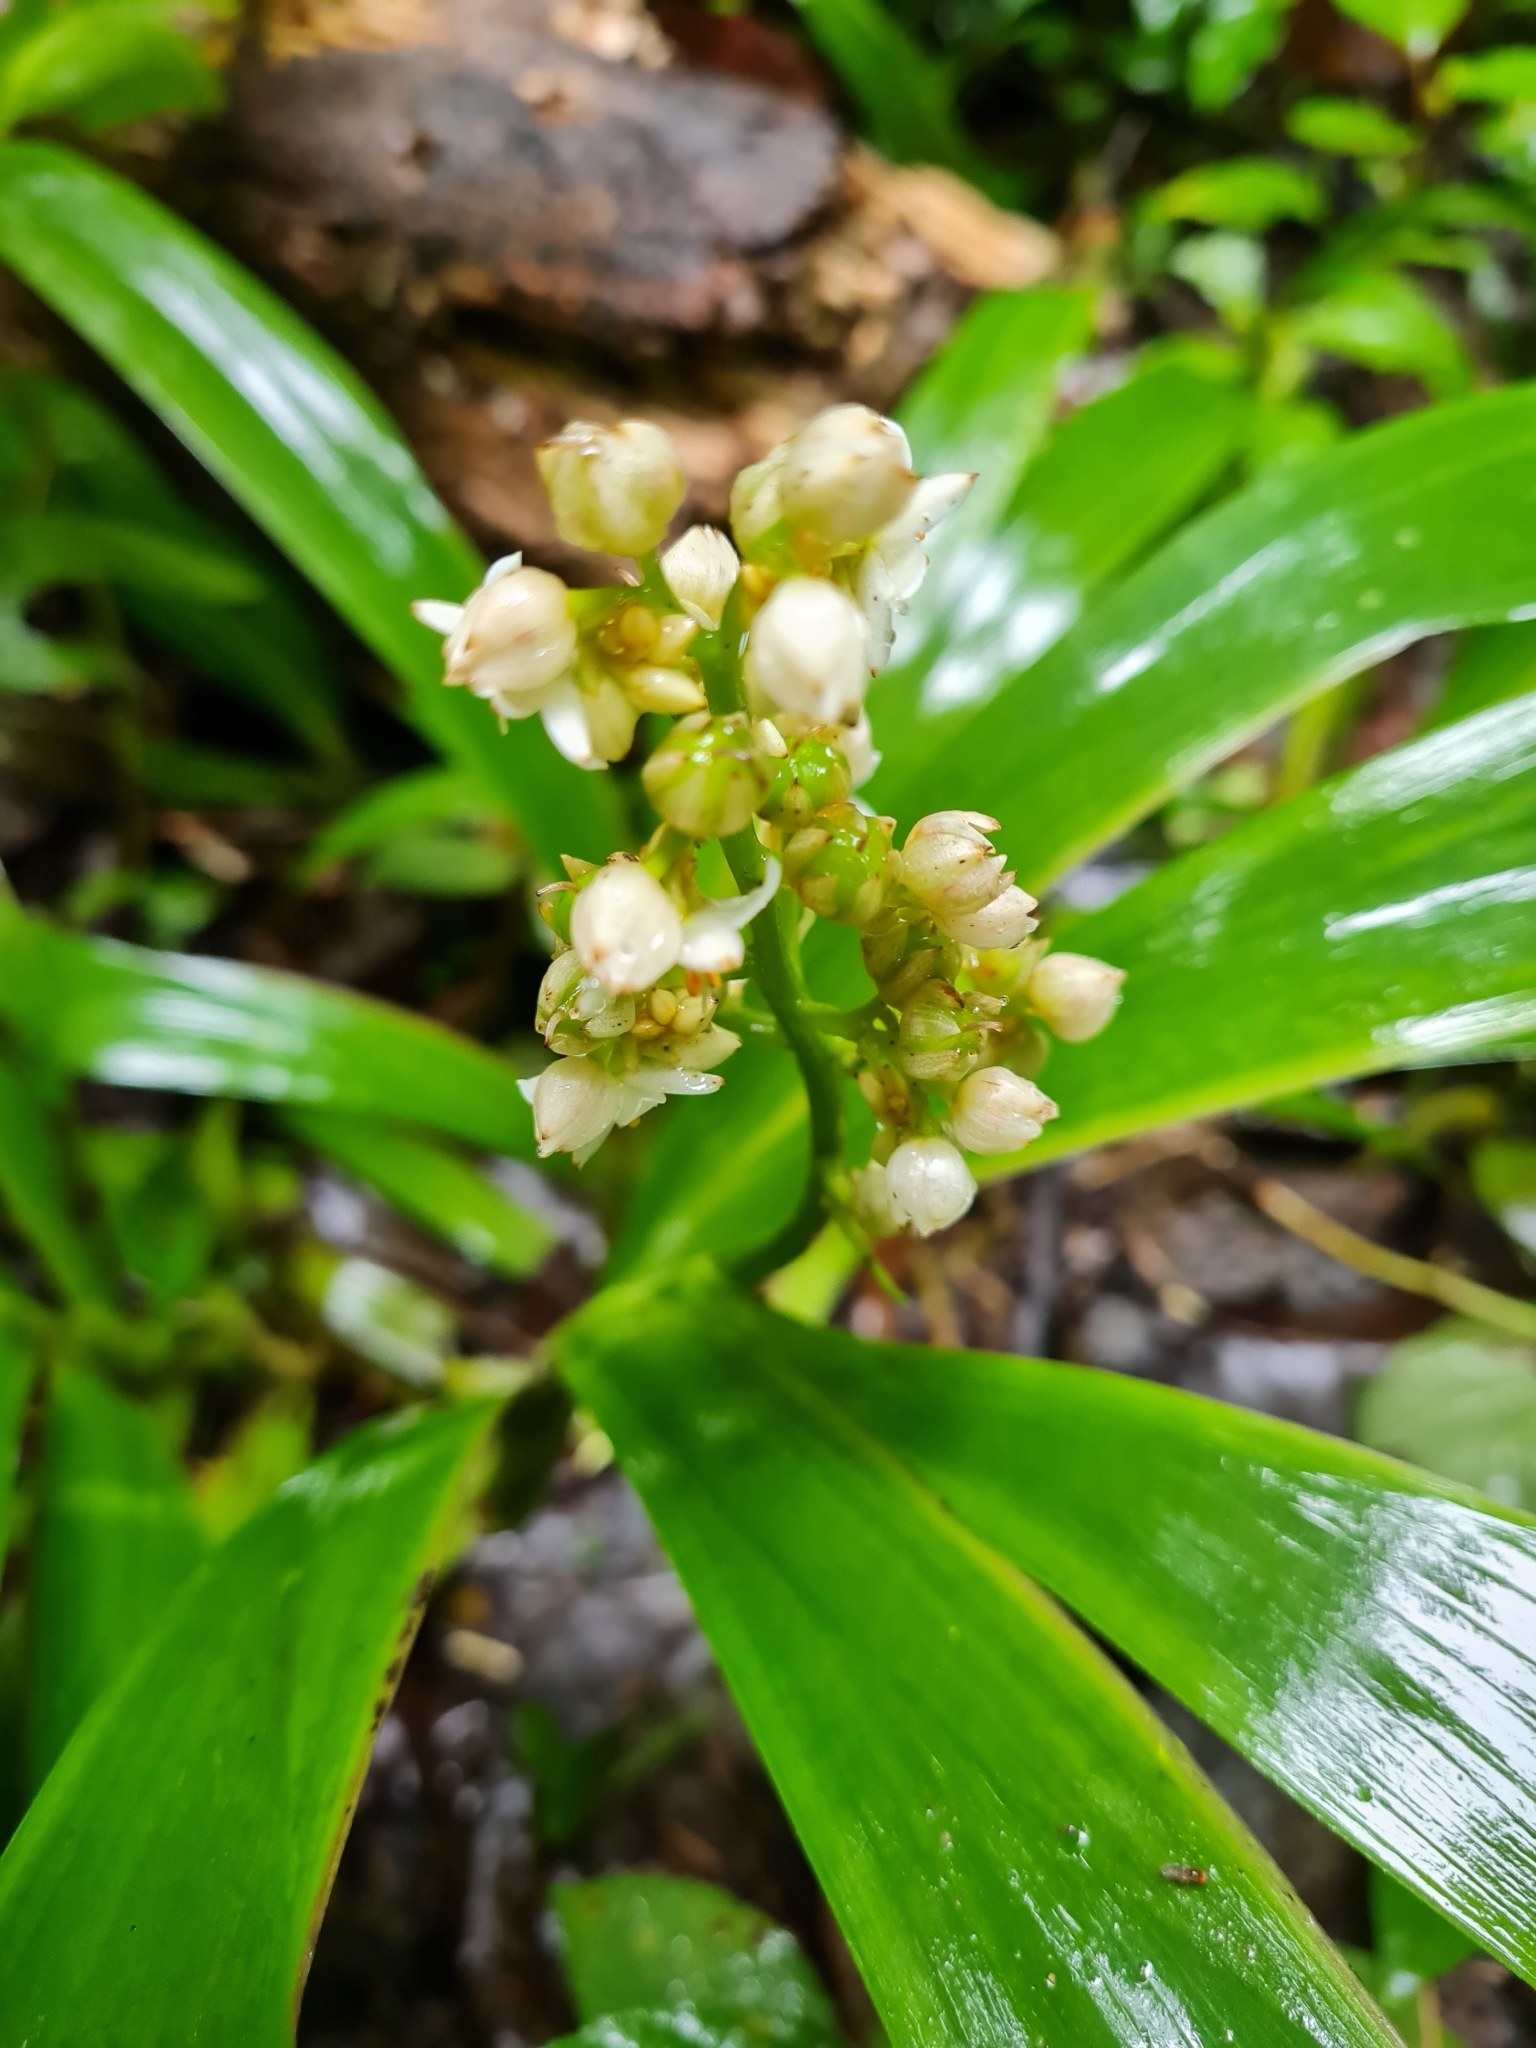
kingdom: Plantae
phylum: Tracheophyta
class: Liliopsida
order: Commelinales
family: Haemodoraceae
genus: Xiphidium
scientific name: Xiphidium caeruleum
